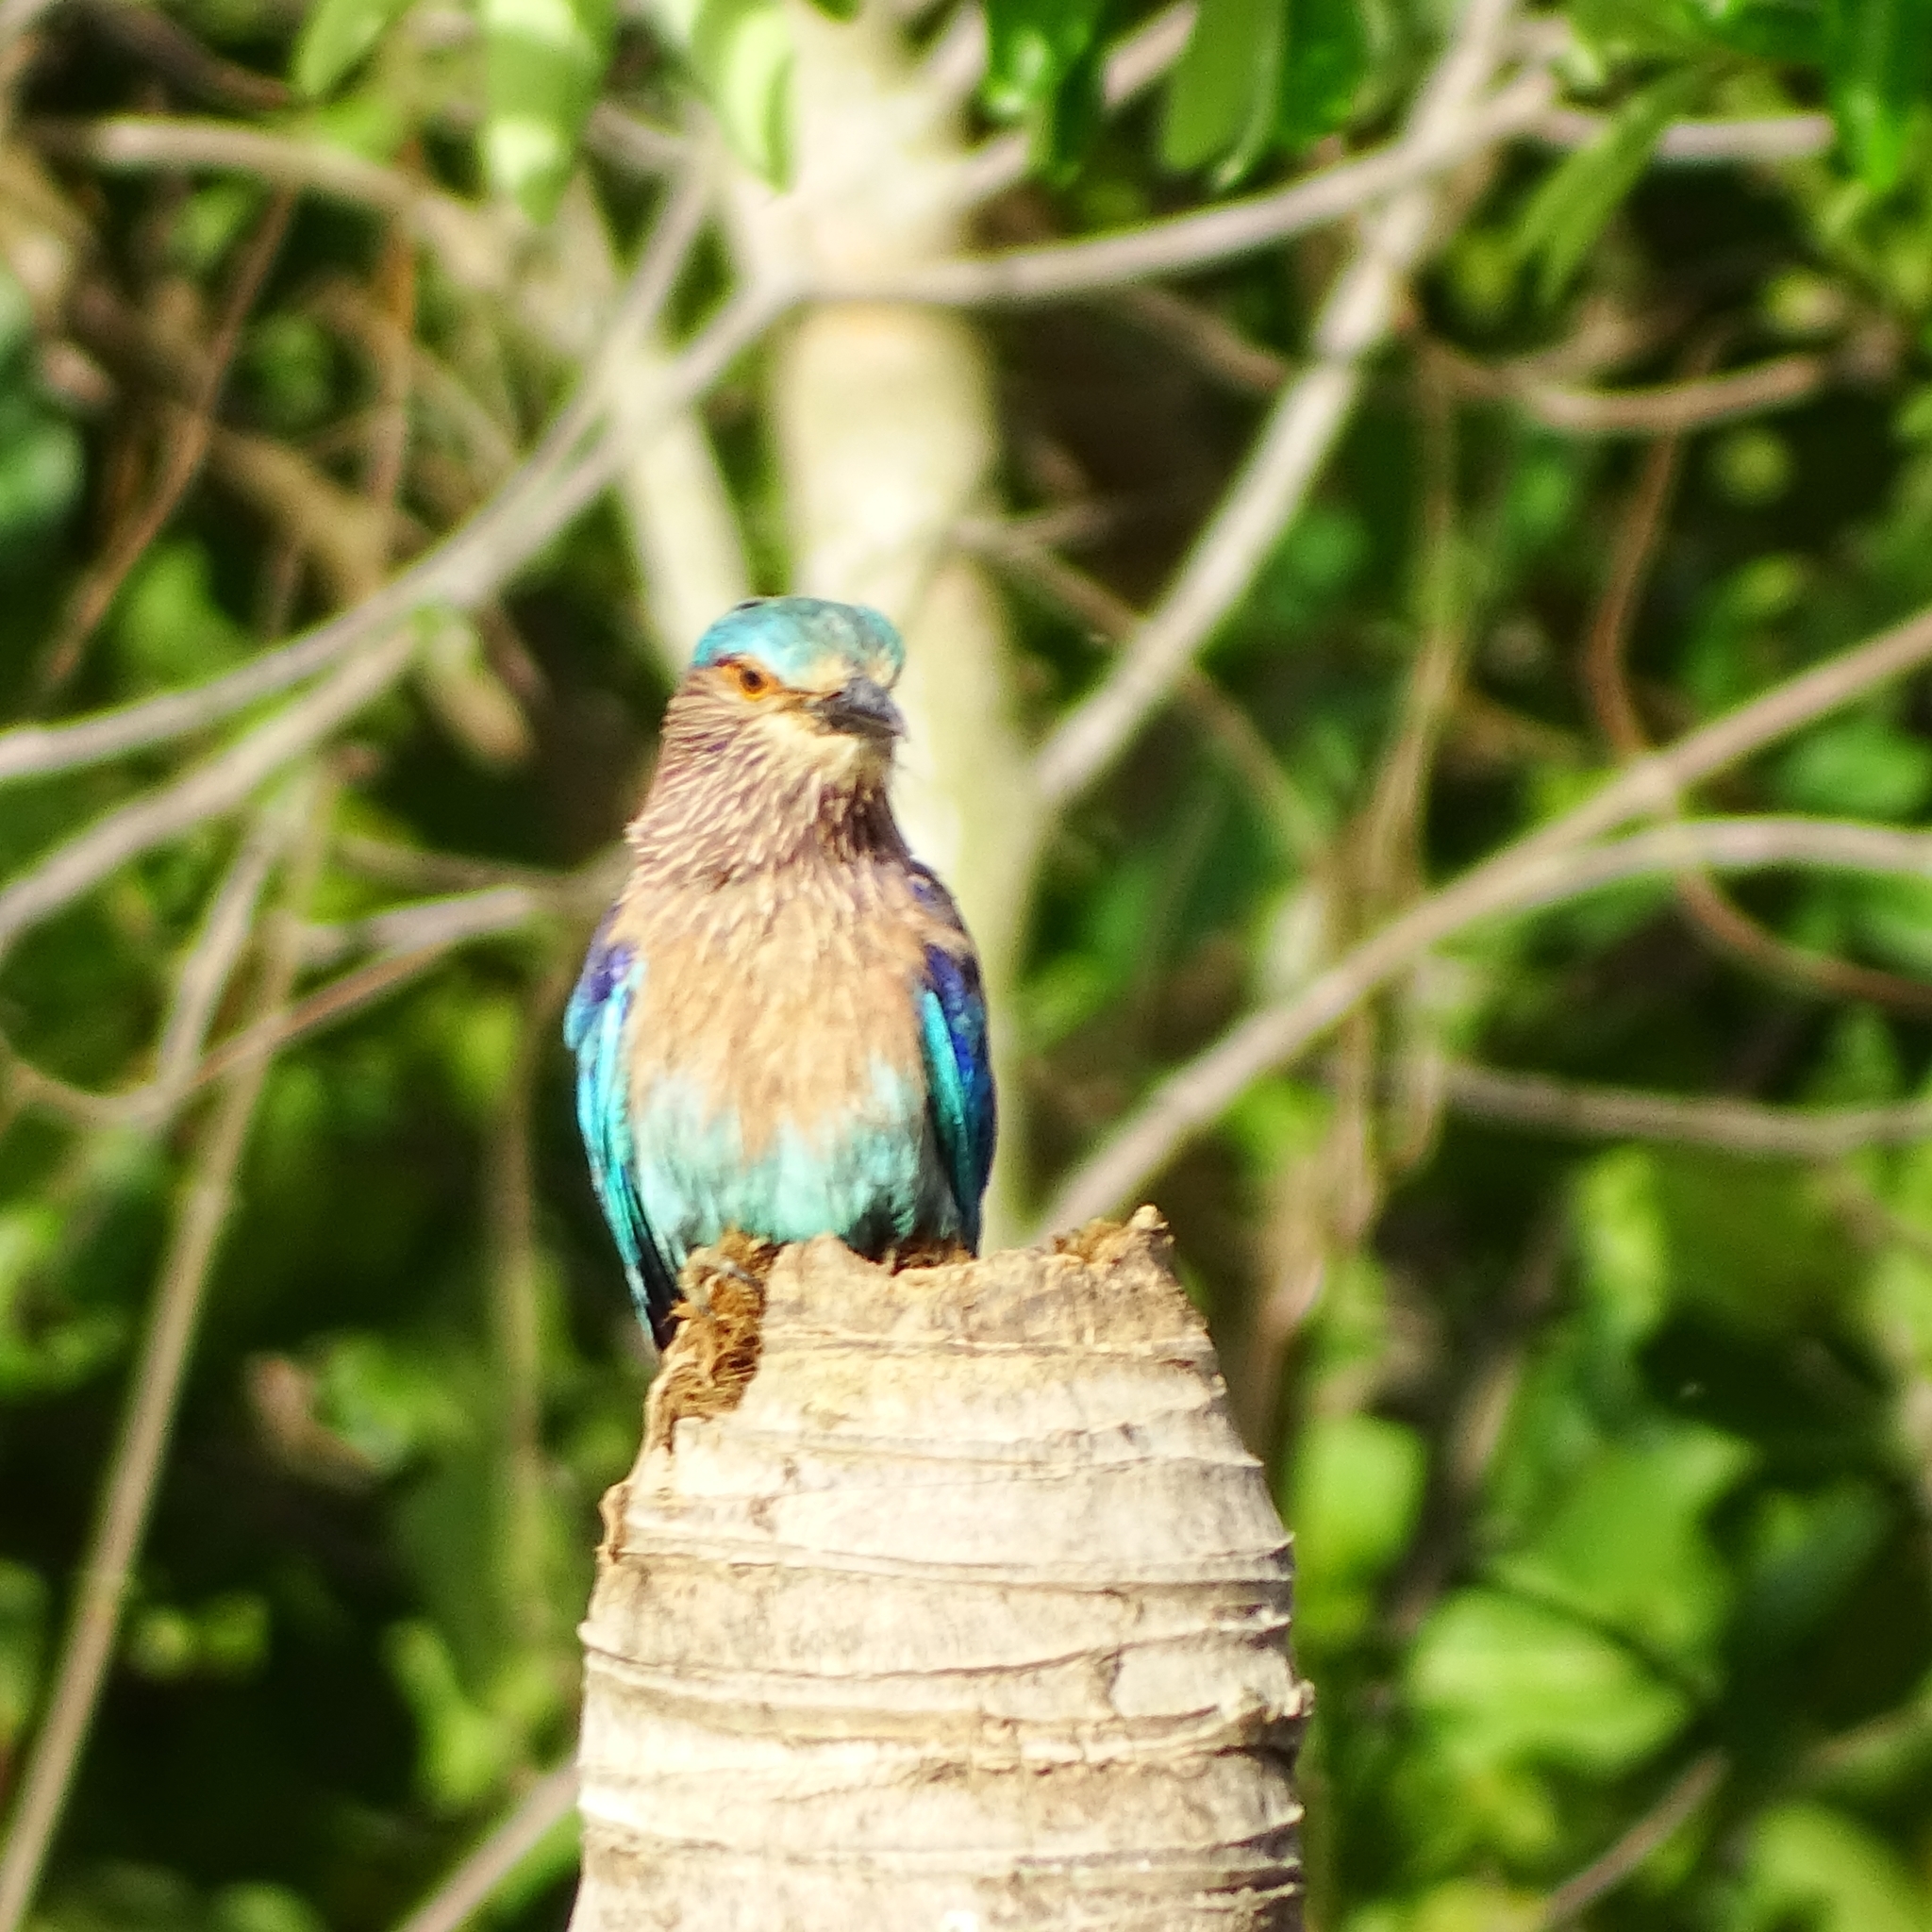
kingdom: Animalia
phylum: Chordata
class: Aves
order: Coraciiformes
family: Coraciidae
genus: Coracias
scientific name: Coracias benghalensis
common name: Indian roller
